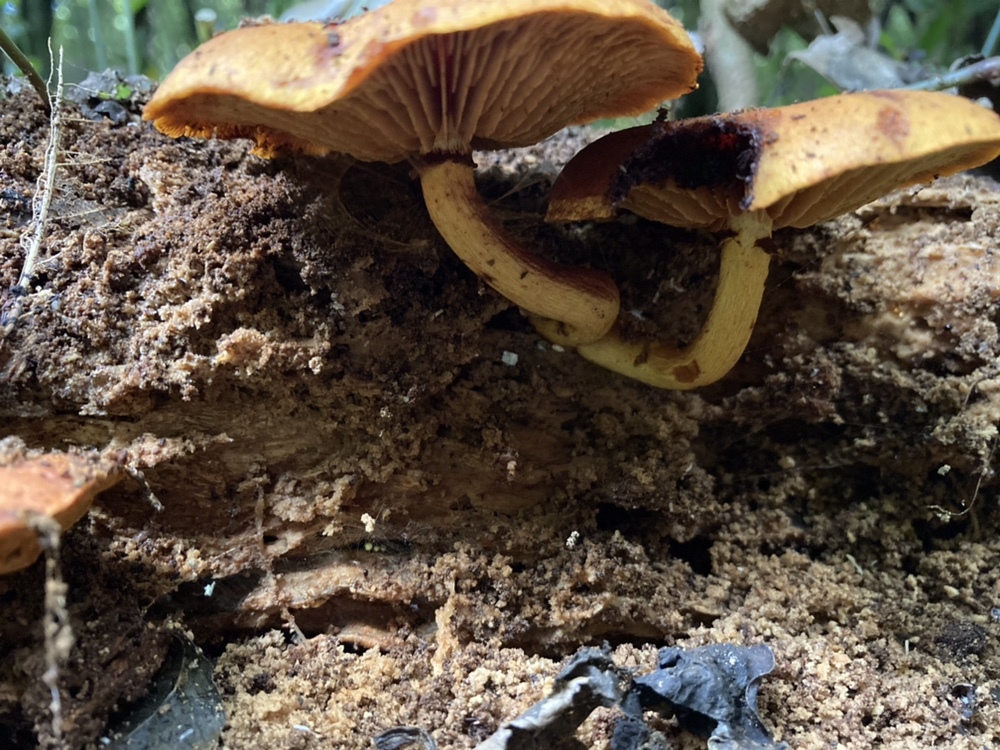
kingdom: Fungi
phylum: Basidiomycota
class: Agaricomycetes
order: Agaricales
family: Hymenogastraceae
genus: Gymnopilus
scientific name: Gymnopilus junonius
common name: Spectacular rustgill
